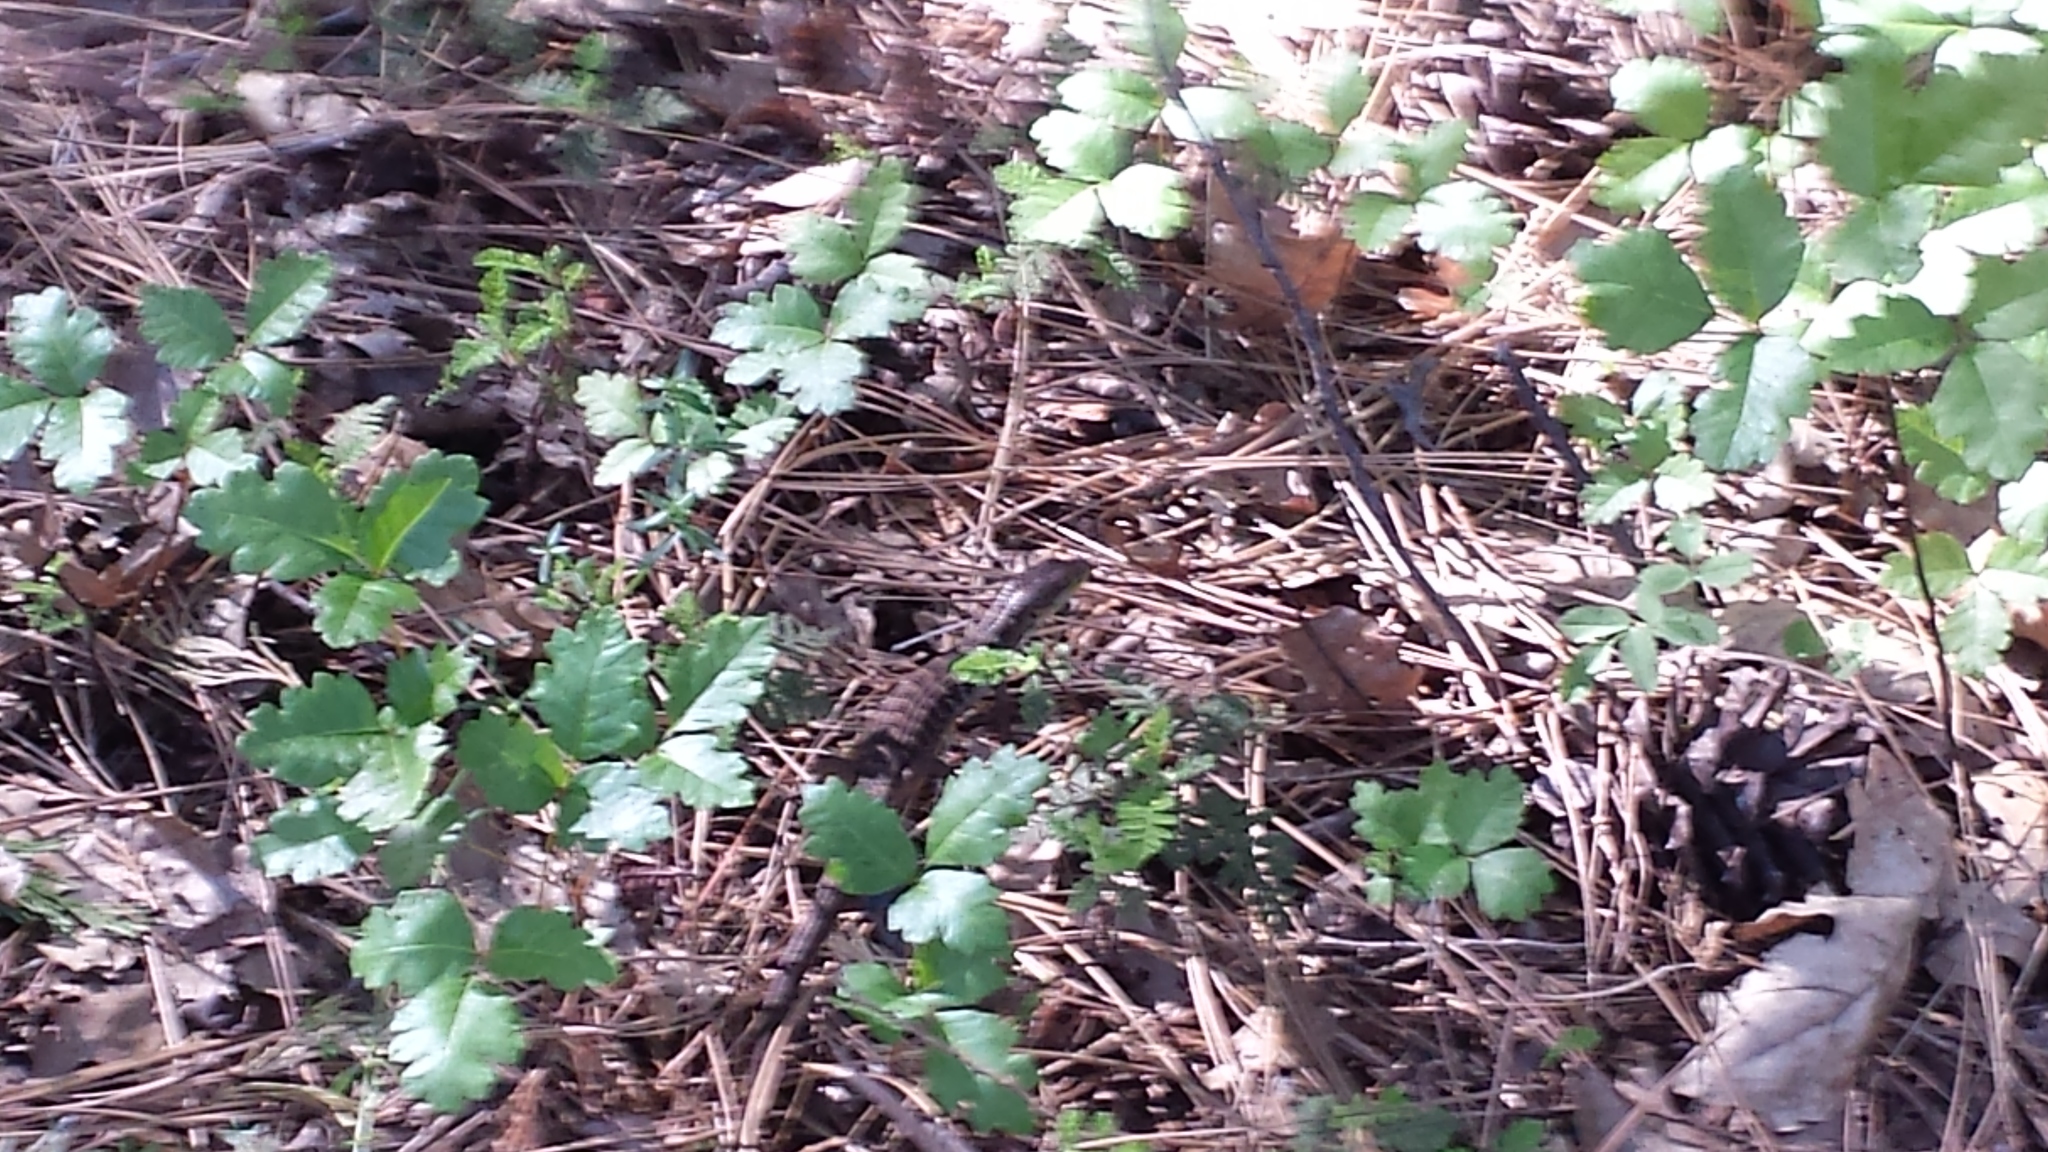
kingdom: Animalia
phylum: Chordata
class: Squamata
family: Anguidae
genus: Elgaria
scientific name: Elgaria multicarinata
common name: Southern alligator lizard
